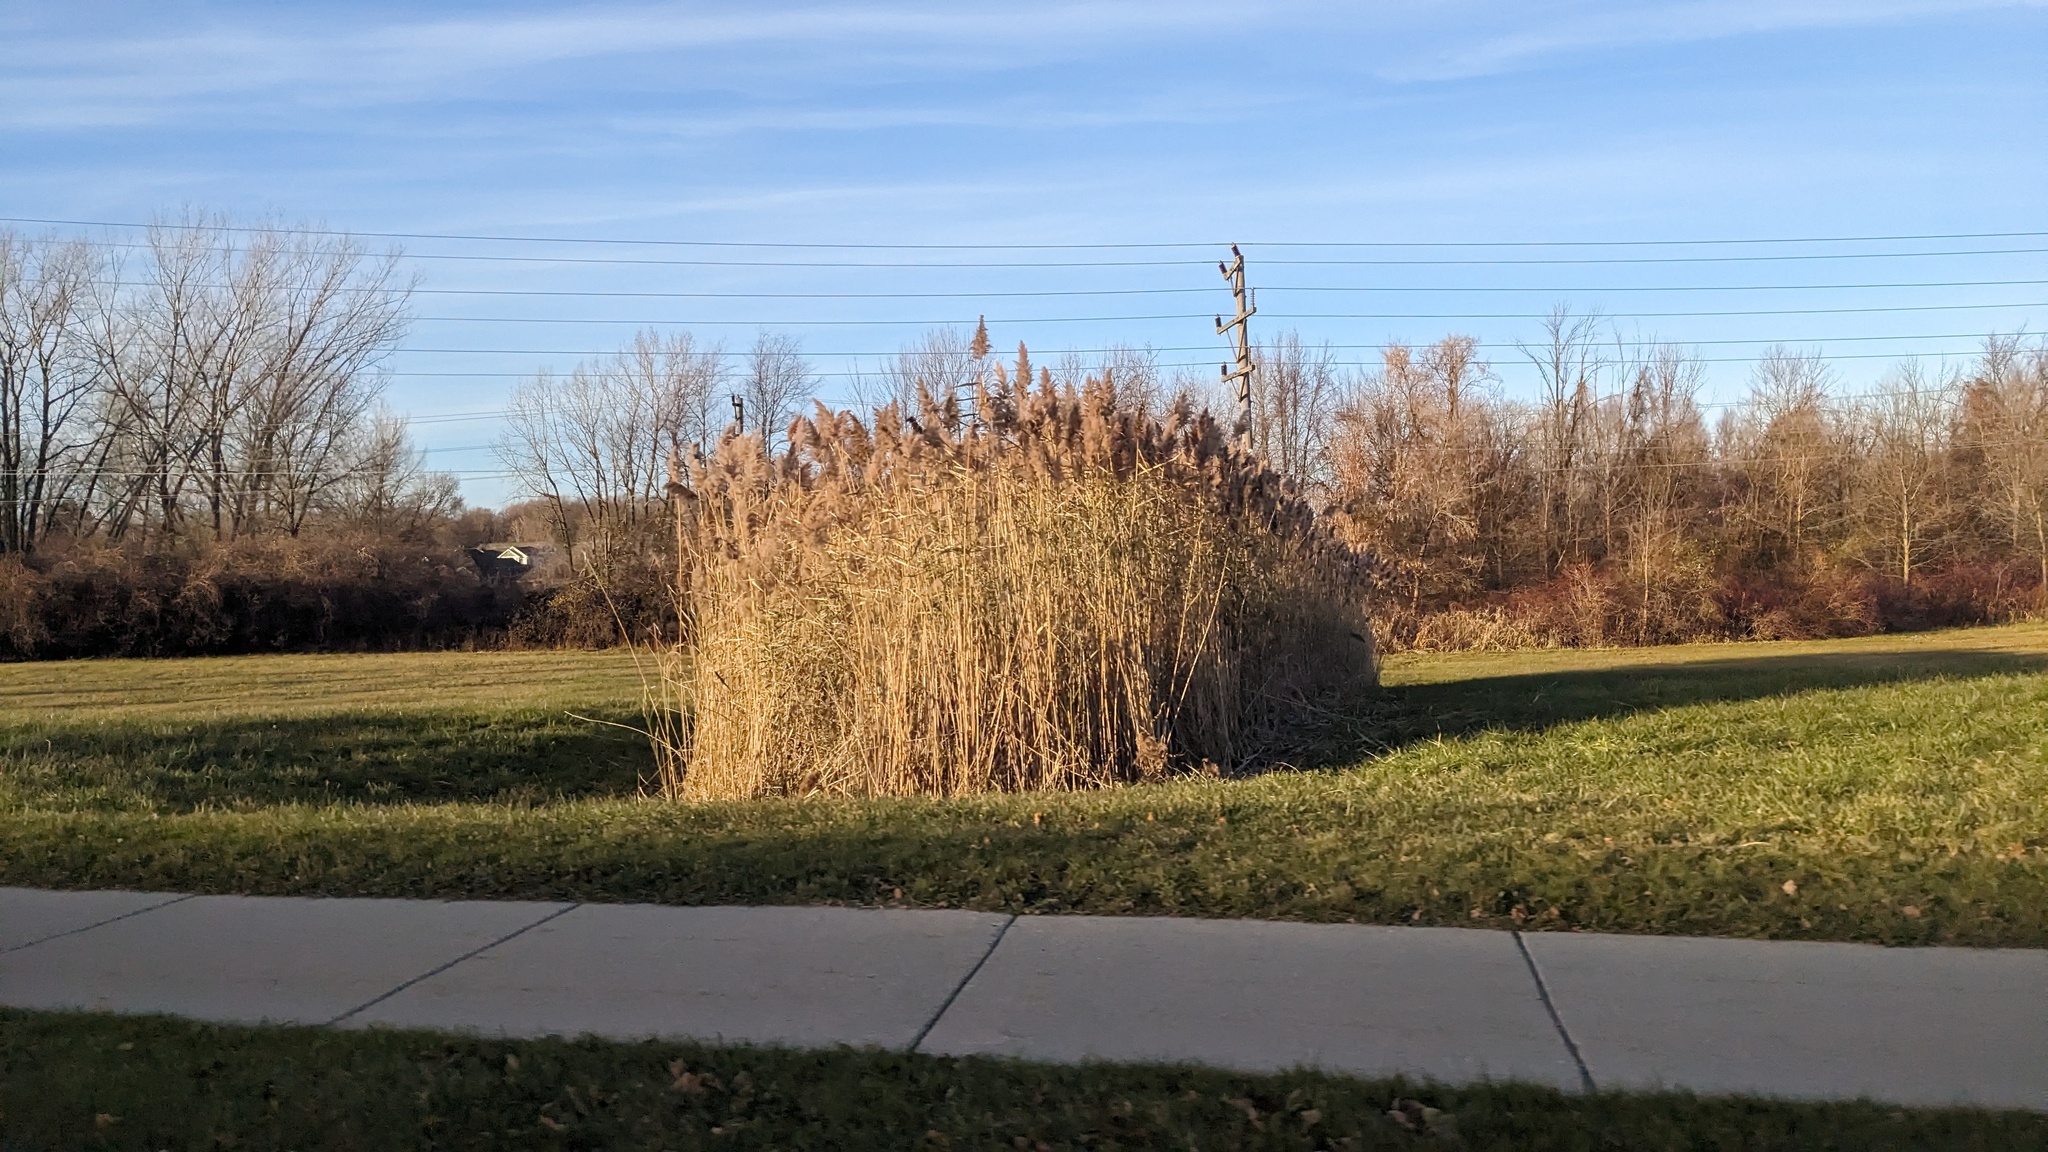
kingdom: Plantae
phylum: Tracheophyta
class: Liliopsida
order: Poales
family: Poaceae
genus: Phragmites
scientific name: Phragmites australis
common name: Common reed
